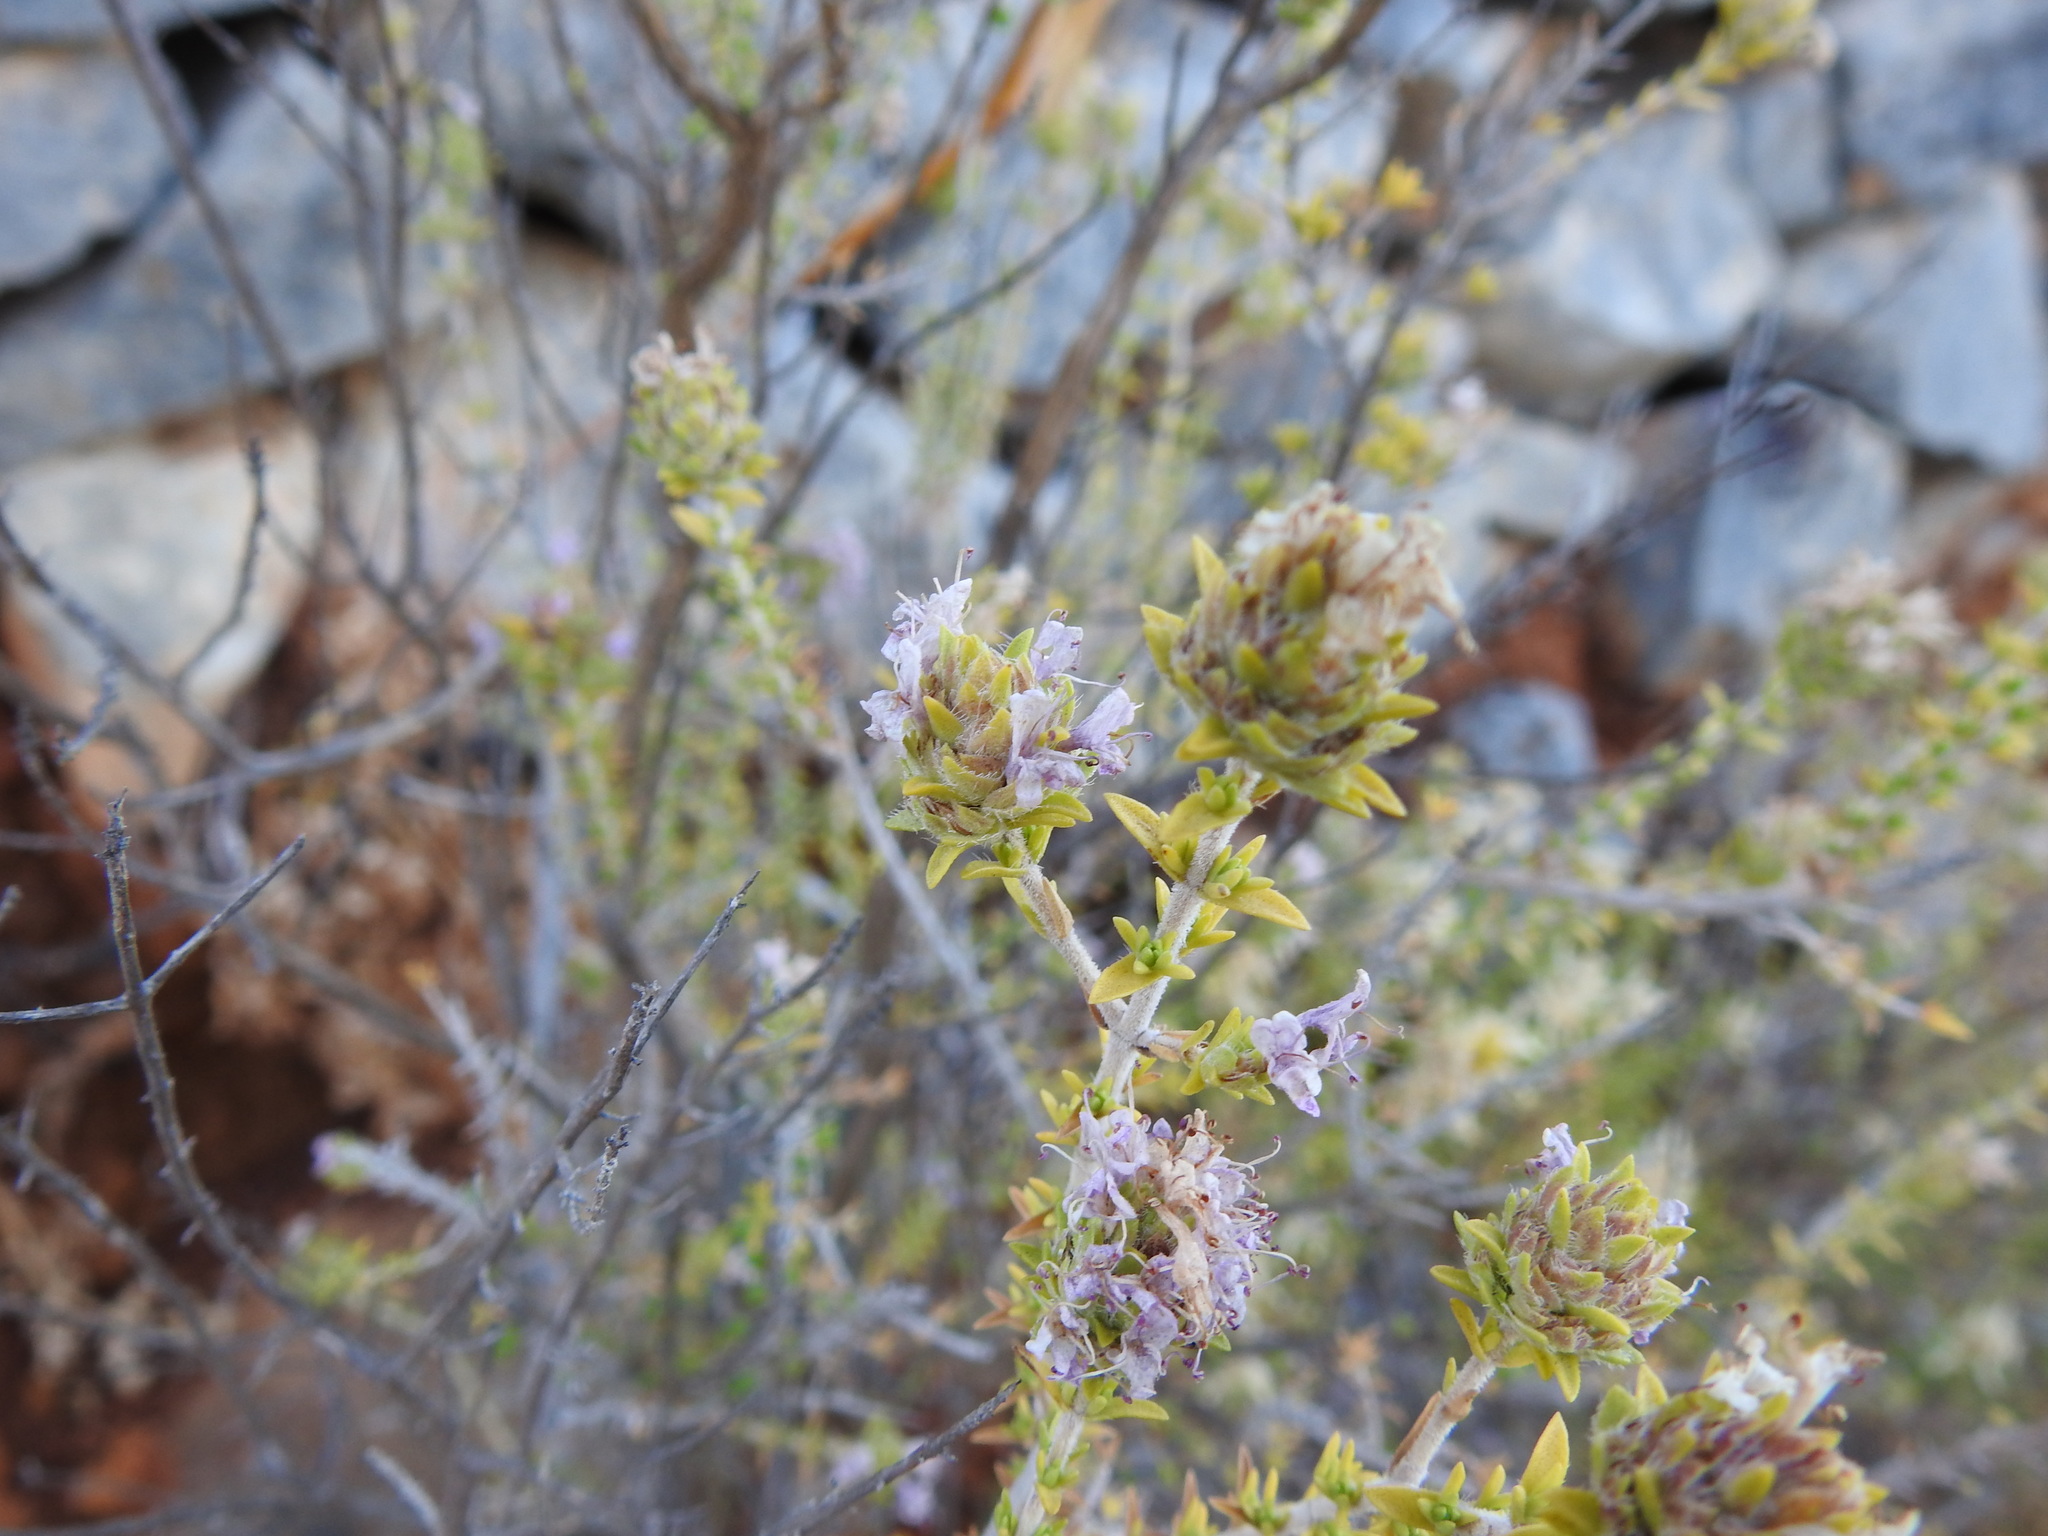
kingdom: Plantae
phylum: Tracheophyta
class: Magnoliopsida
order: Lamiales
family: Lamiaceae
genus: Thymbra
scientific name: Thymbra capitata
